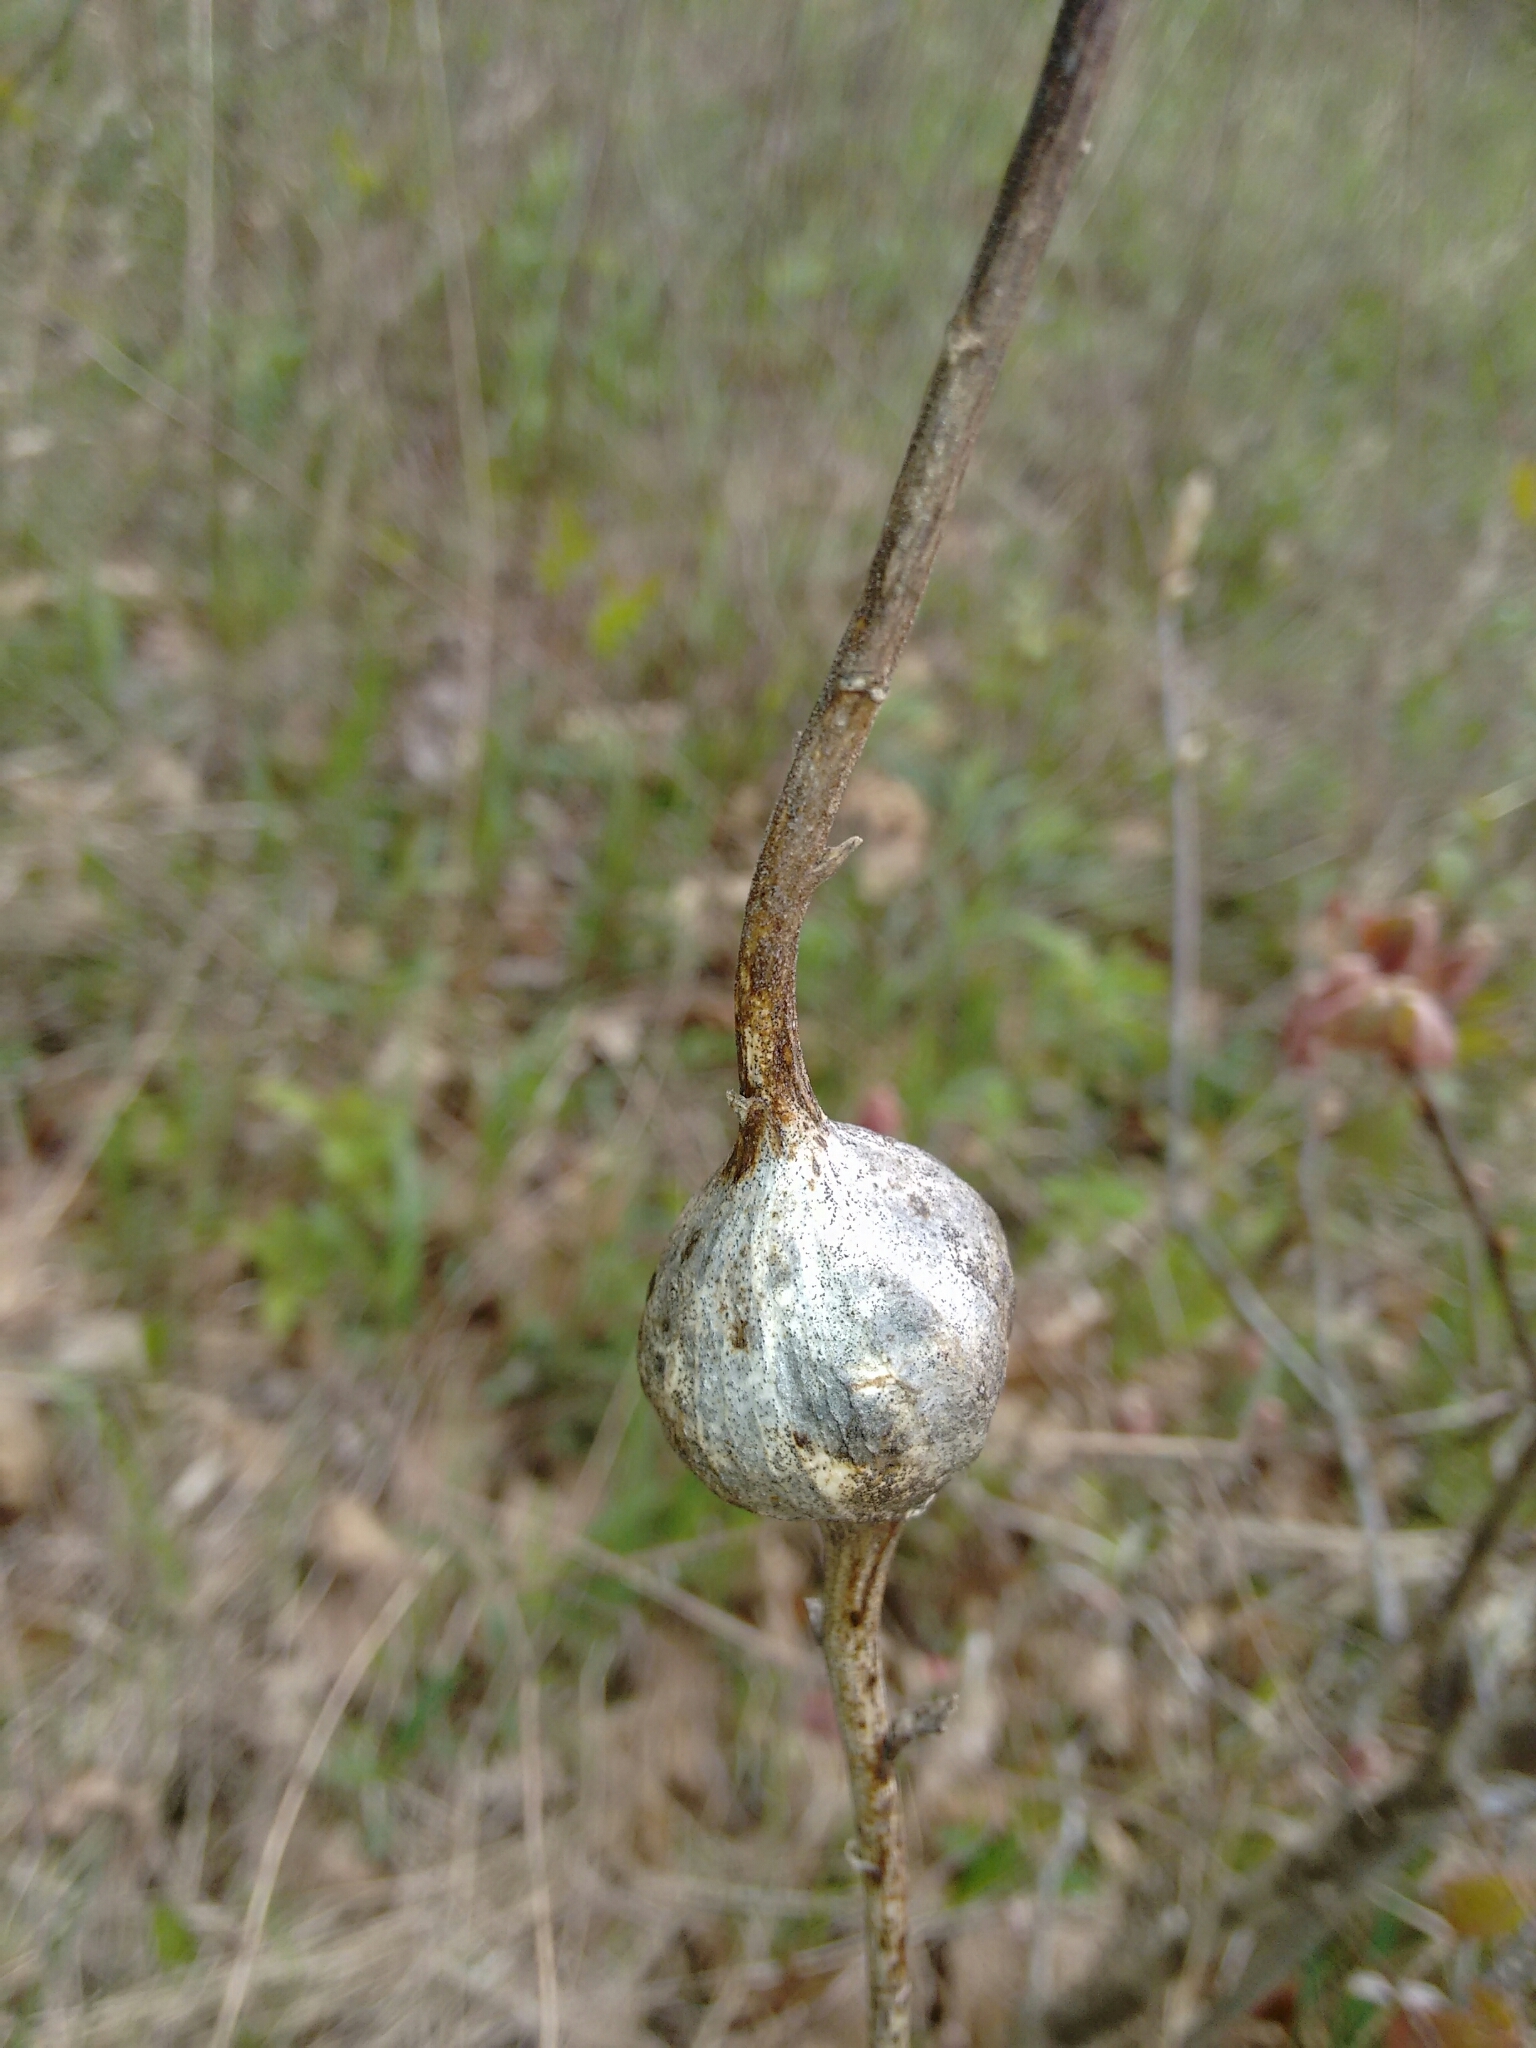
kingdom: Animalia
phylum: Arthropoda
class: Insecta
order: Diptera
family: Tephritidae
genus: Eurosta
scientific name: Eurosta solidaginis
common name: Goldenrod gall fly
